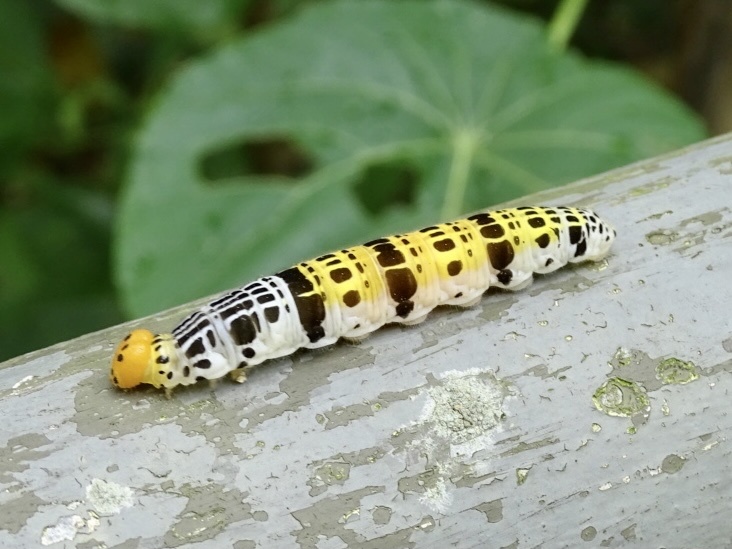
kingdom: Animalia
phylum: Arthropoda
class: Insecta
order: Lepidoptera
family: Hesperiidae
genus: Bibasis
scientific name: Bibasis gomata
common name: Pale green awlet
